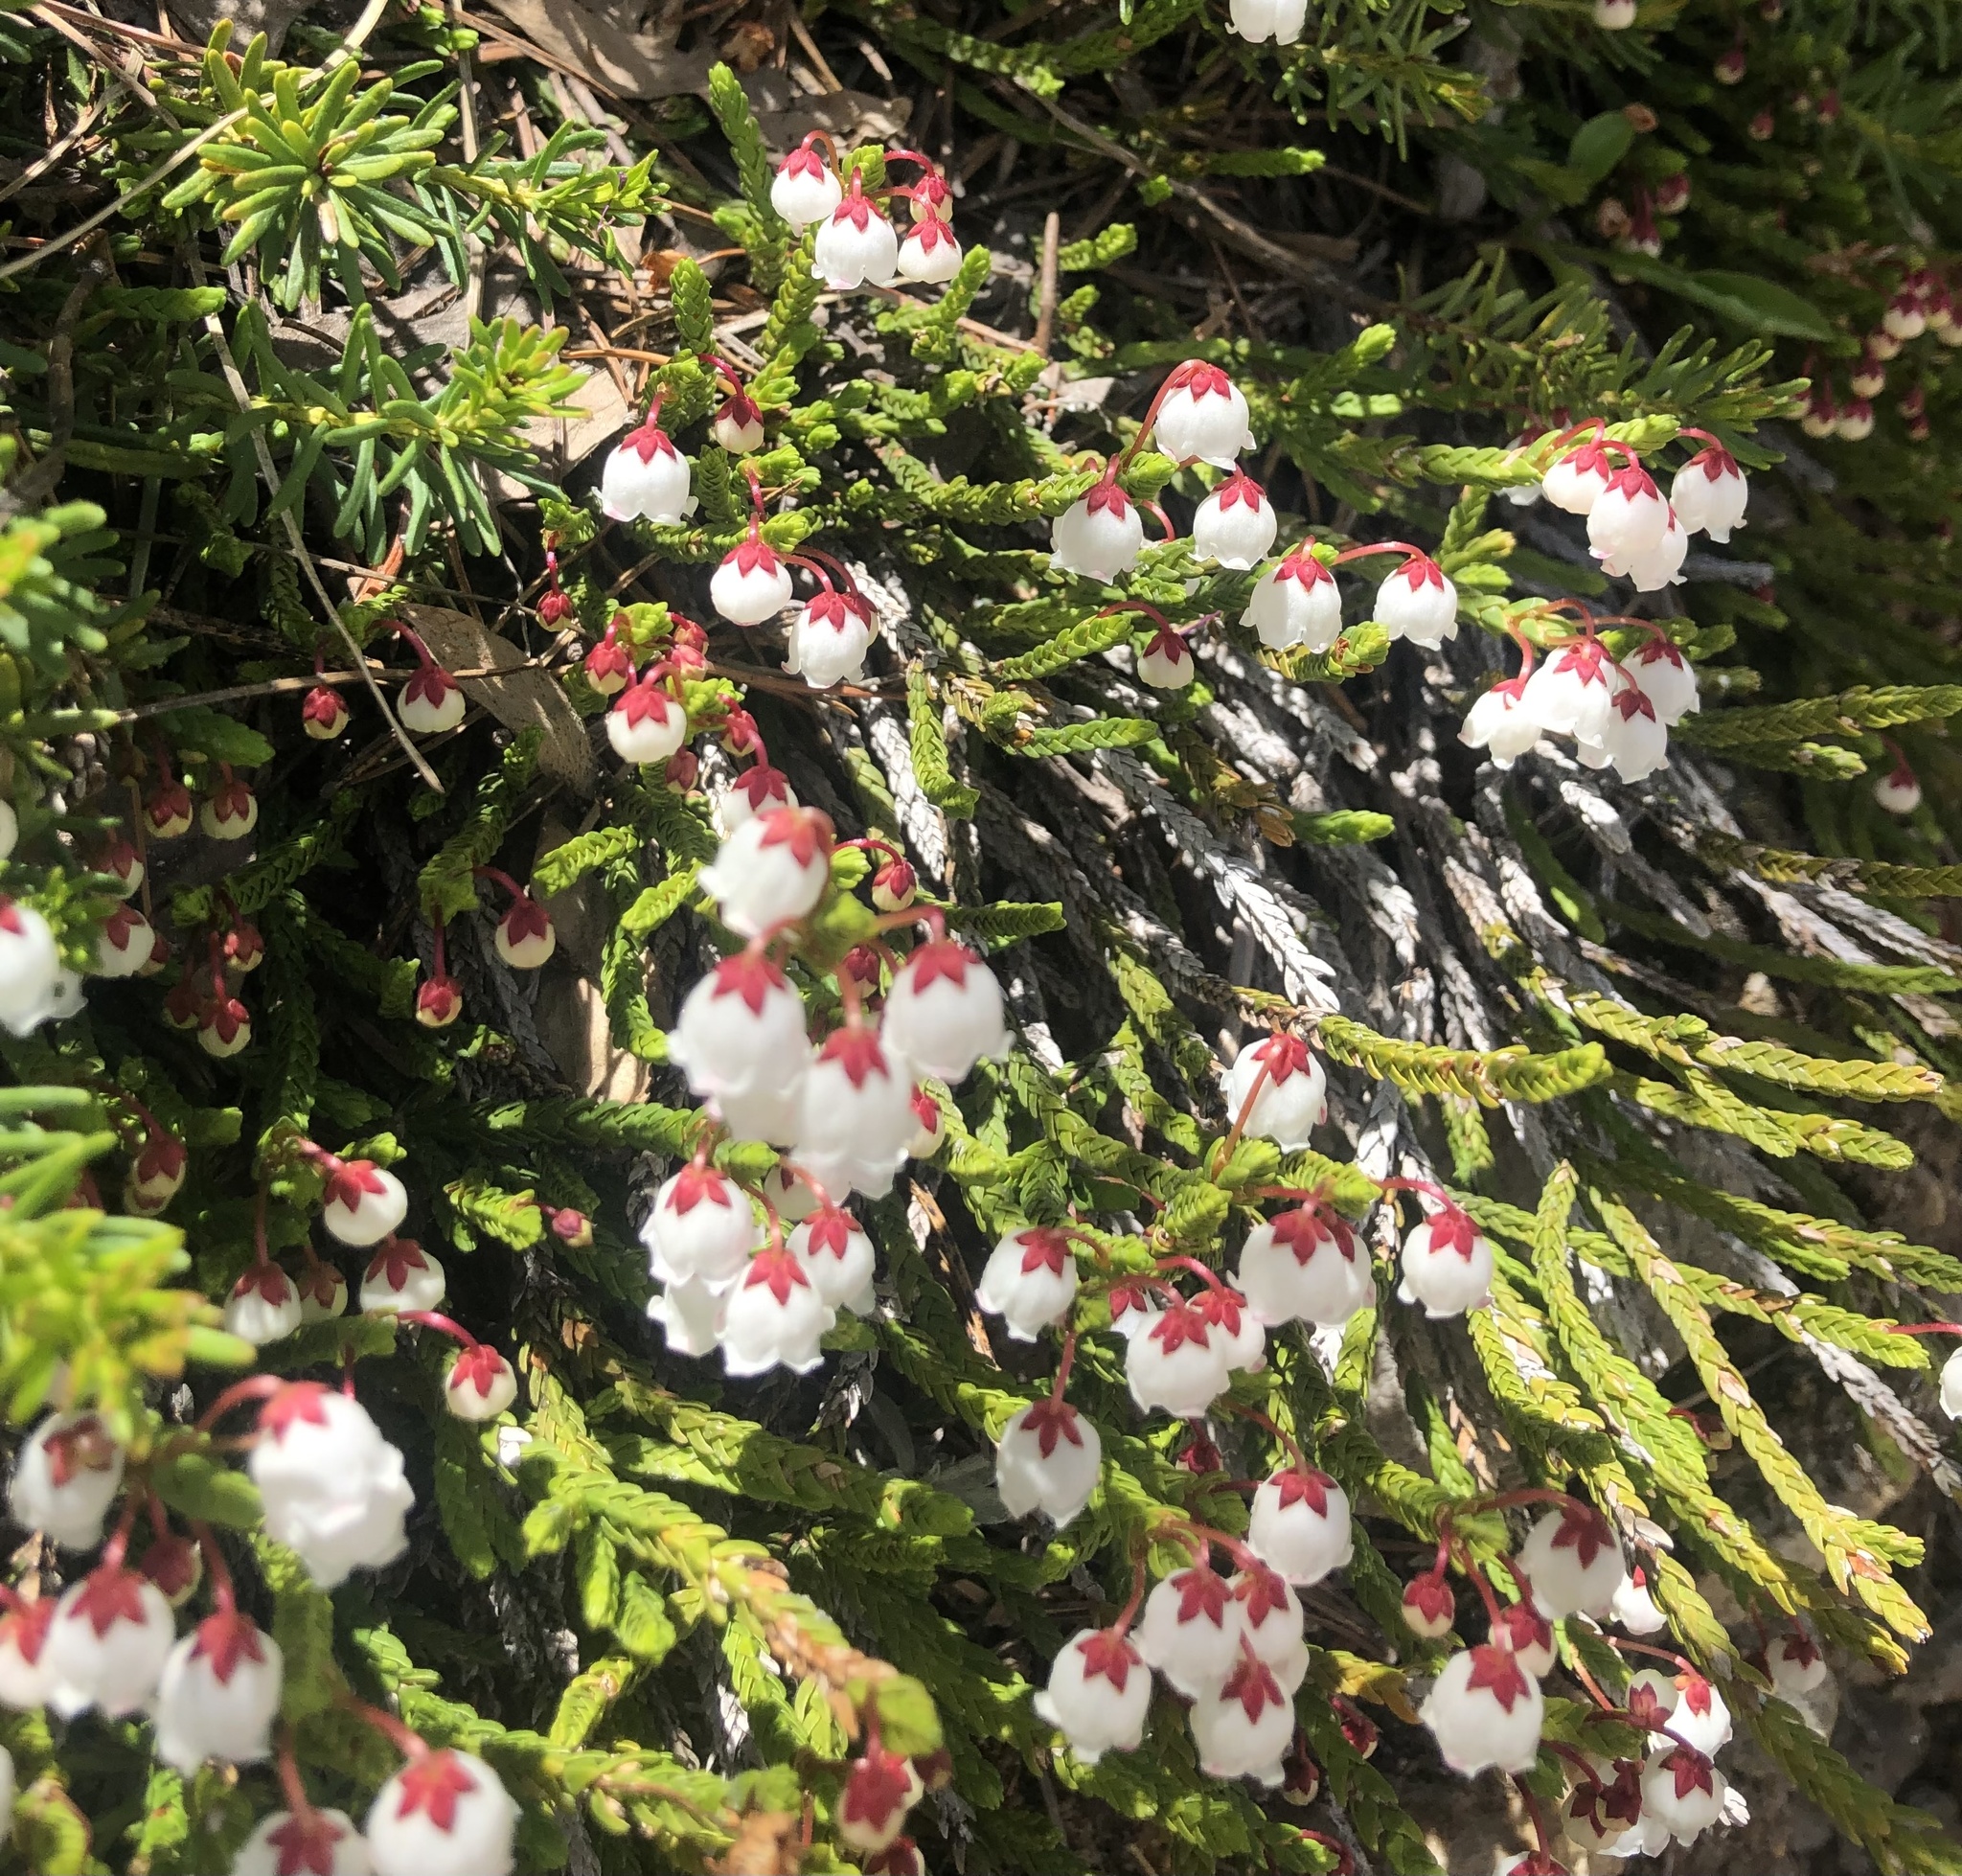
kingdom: Plantae
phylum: Tracheophyta
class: Magnoliopsida
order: Ericales
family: Ericaceae
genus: Cassiope
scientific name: Cassiope mertensiana
